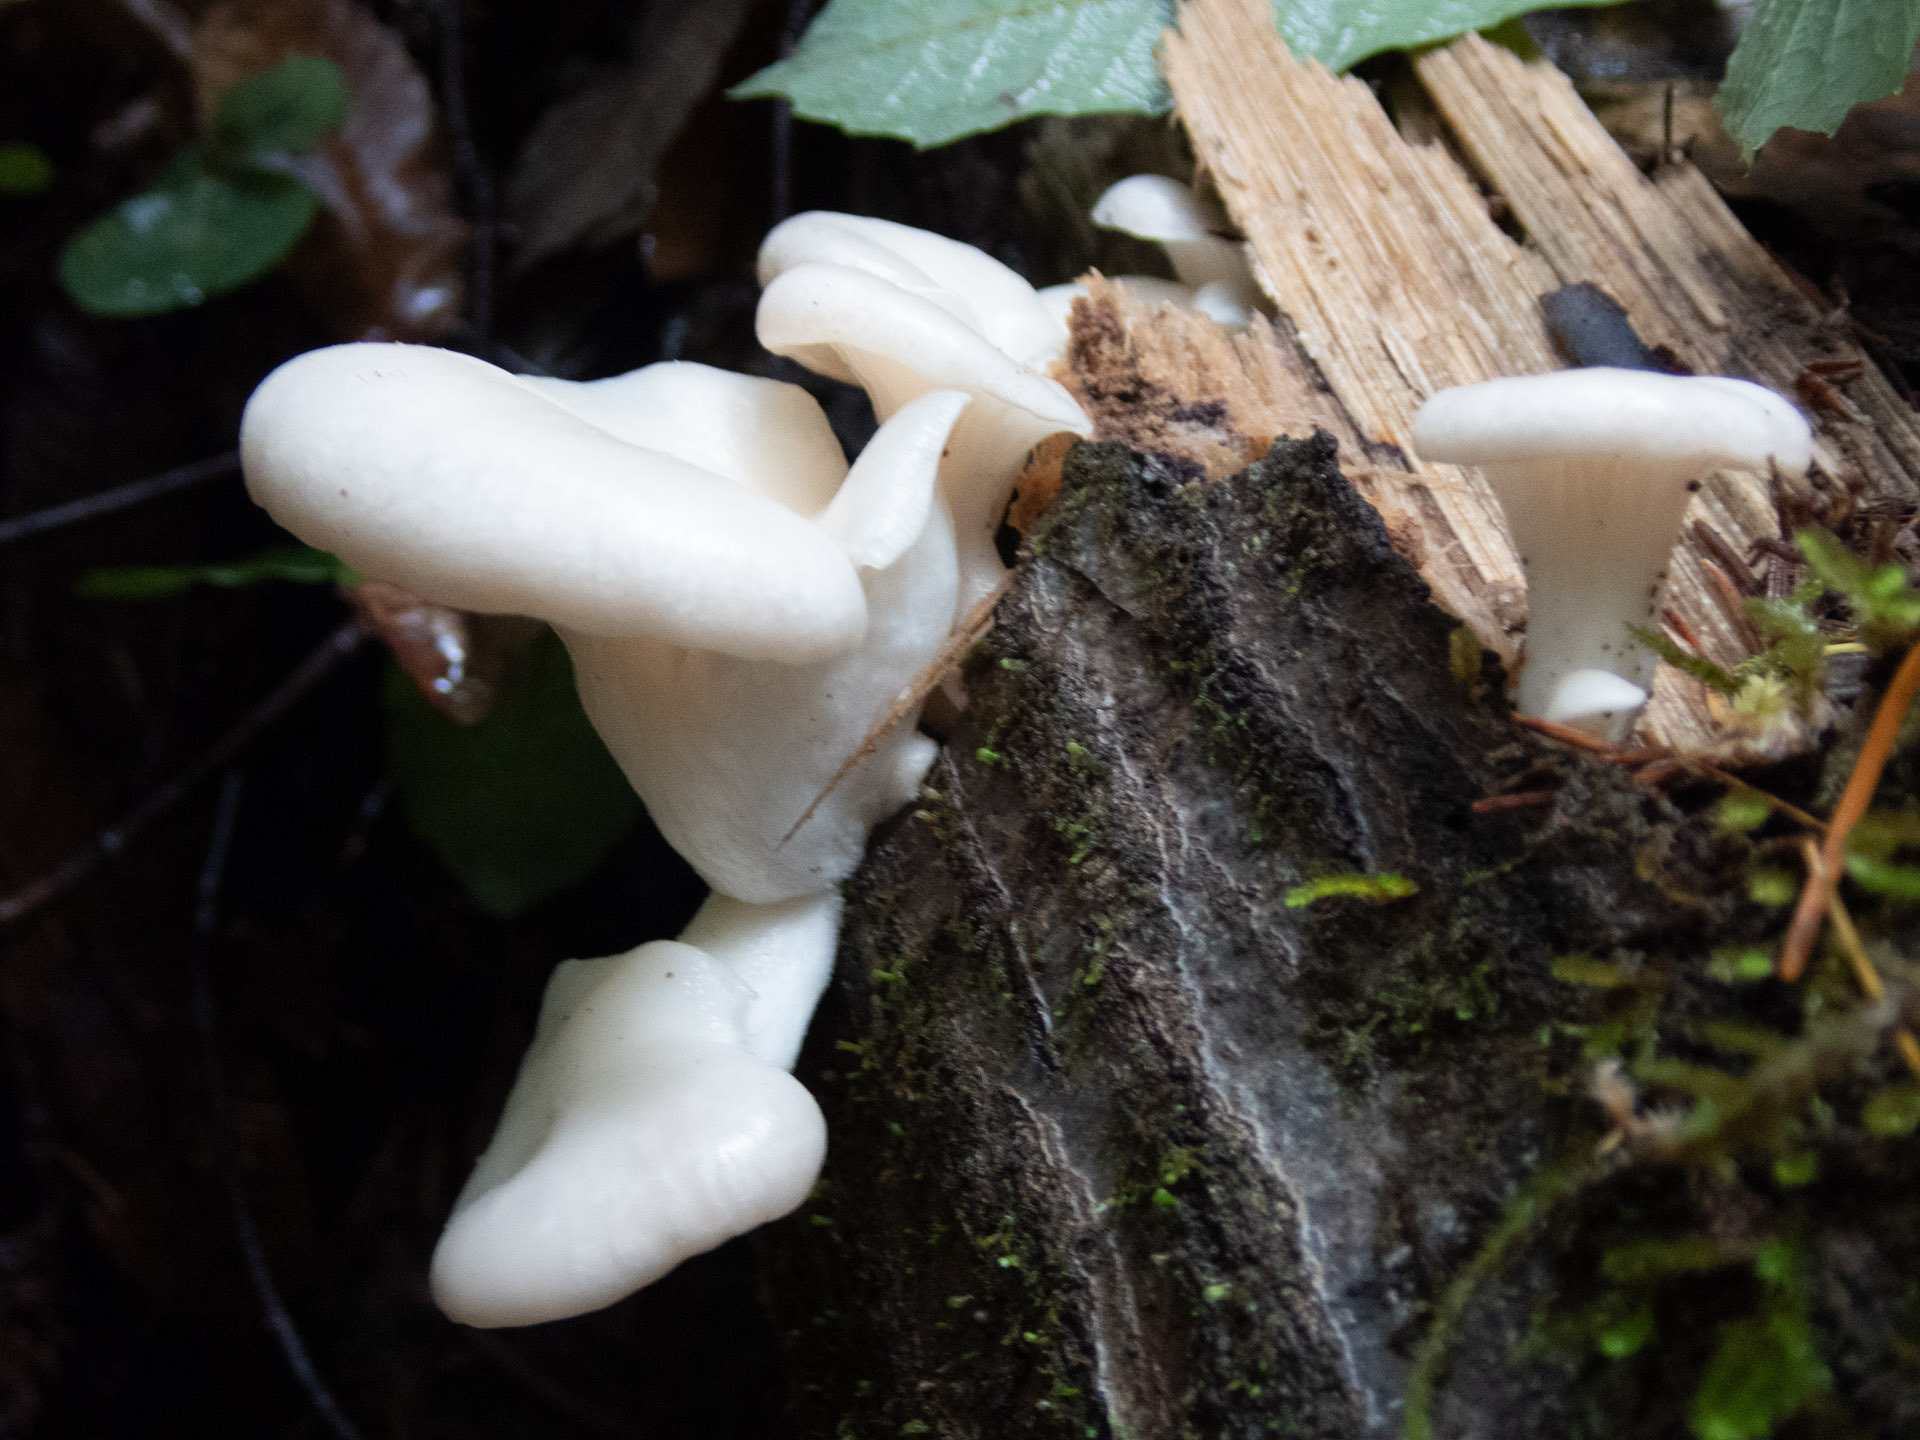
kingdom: Fungi
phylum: Basidiomycota
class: Agaricomycetes
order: Agaricales
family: Pleurotaceae
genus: Pleurotus
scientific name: Pleurotus pulmonarius
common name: Pale oyster
